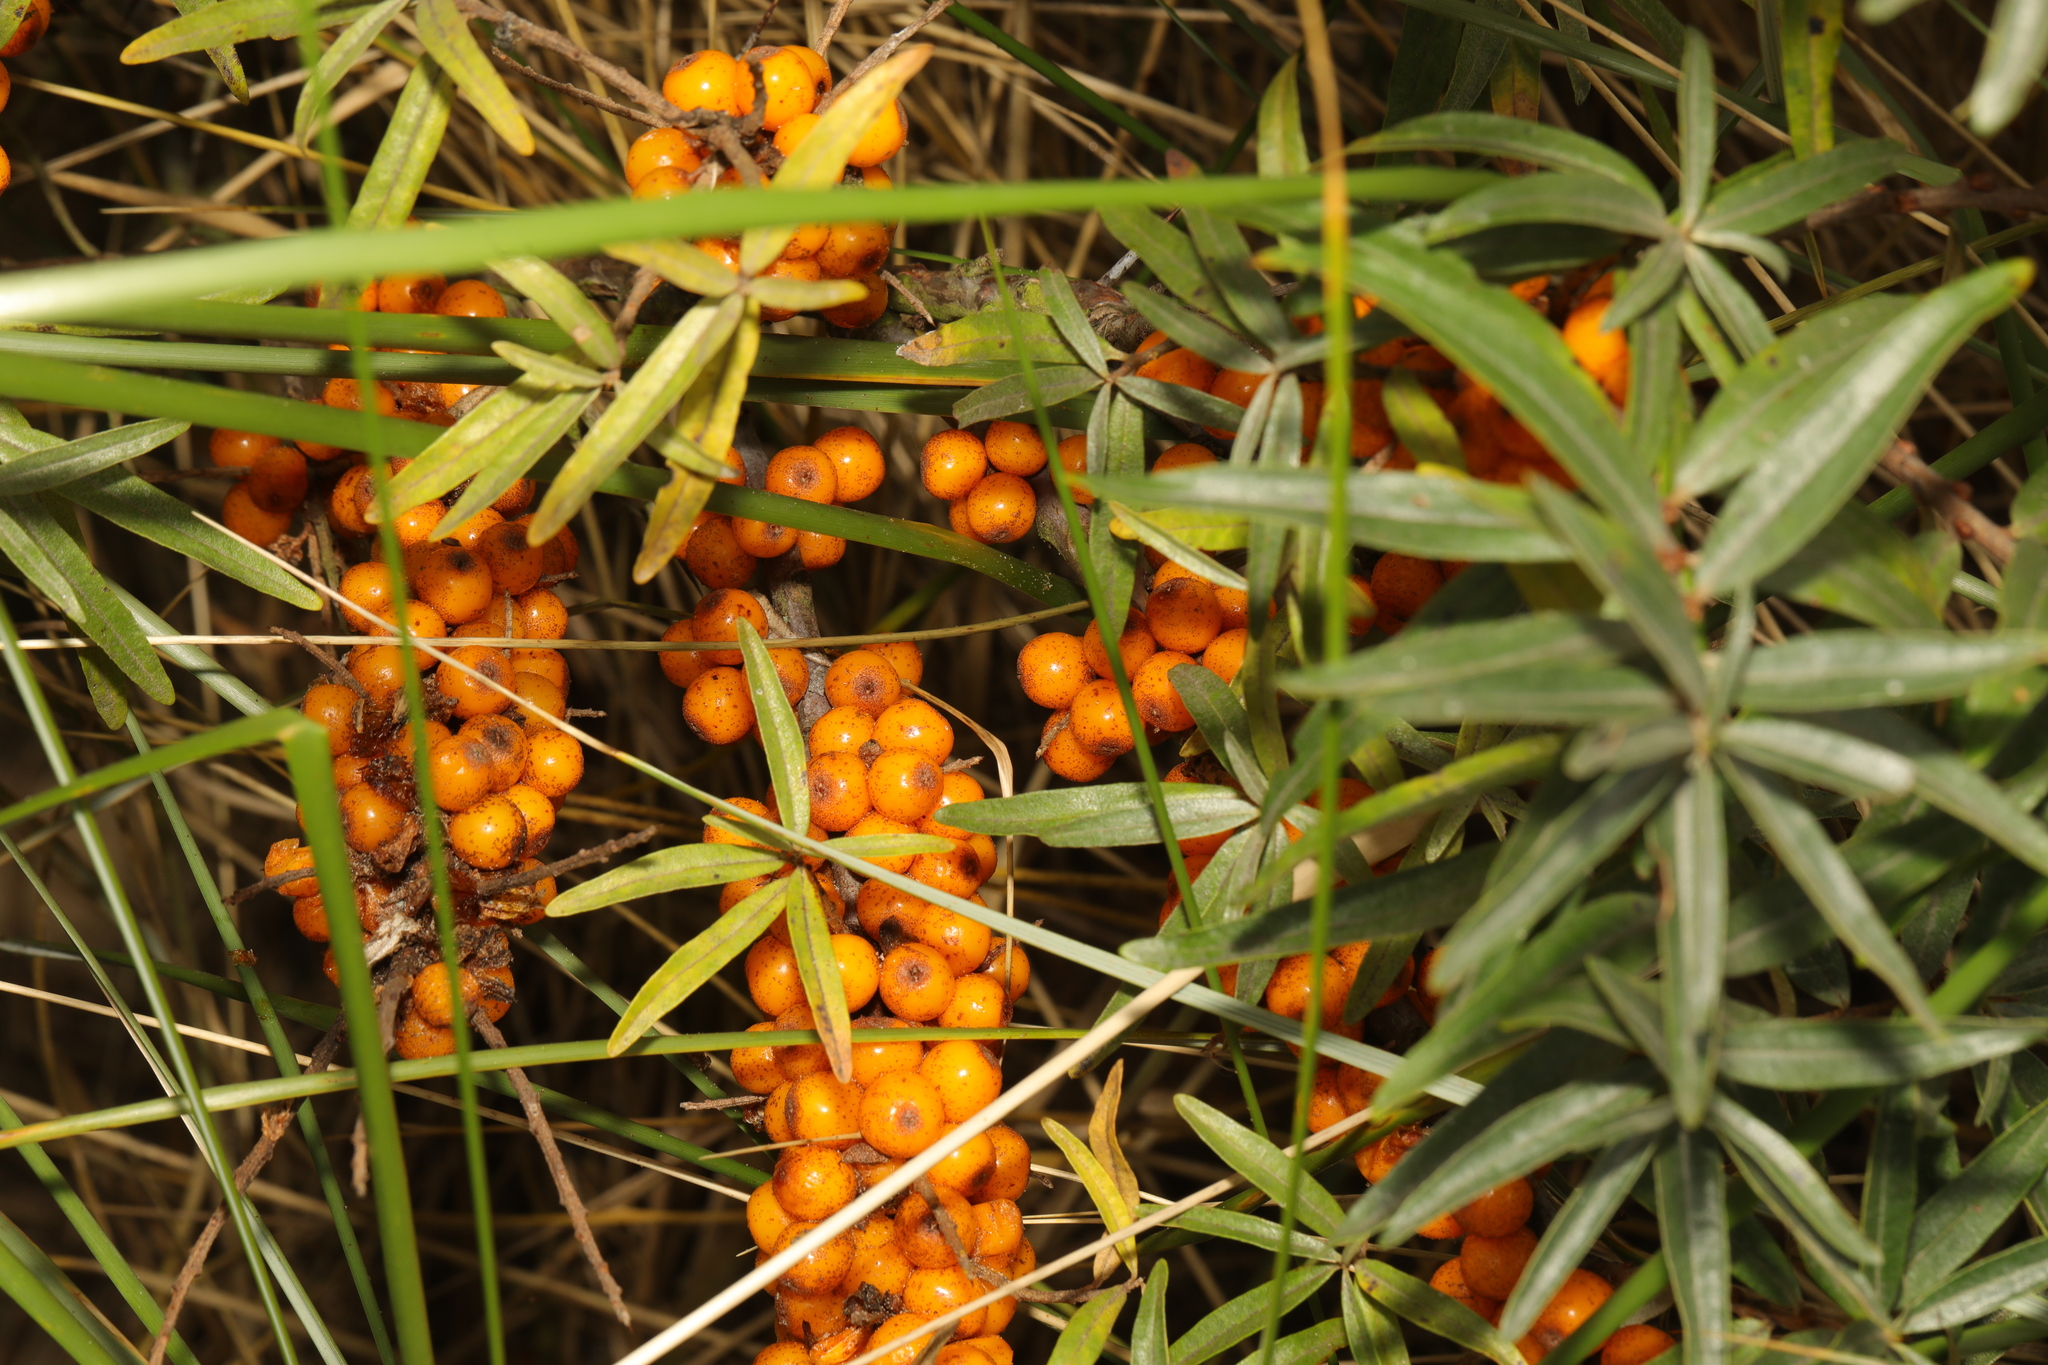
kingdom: Plantae
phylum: Tracheophyta
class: Magnoliopsida
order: Rosales
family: Elaeagnaceae
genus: Hippophae
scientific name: Hippophae rhamnoides
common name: Sea-buckthorn
